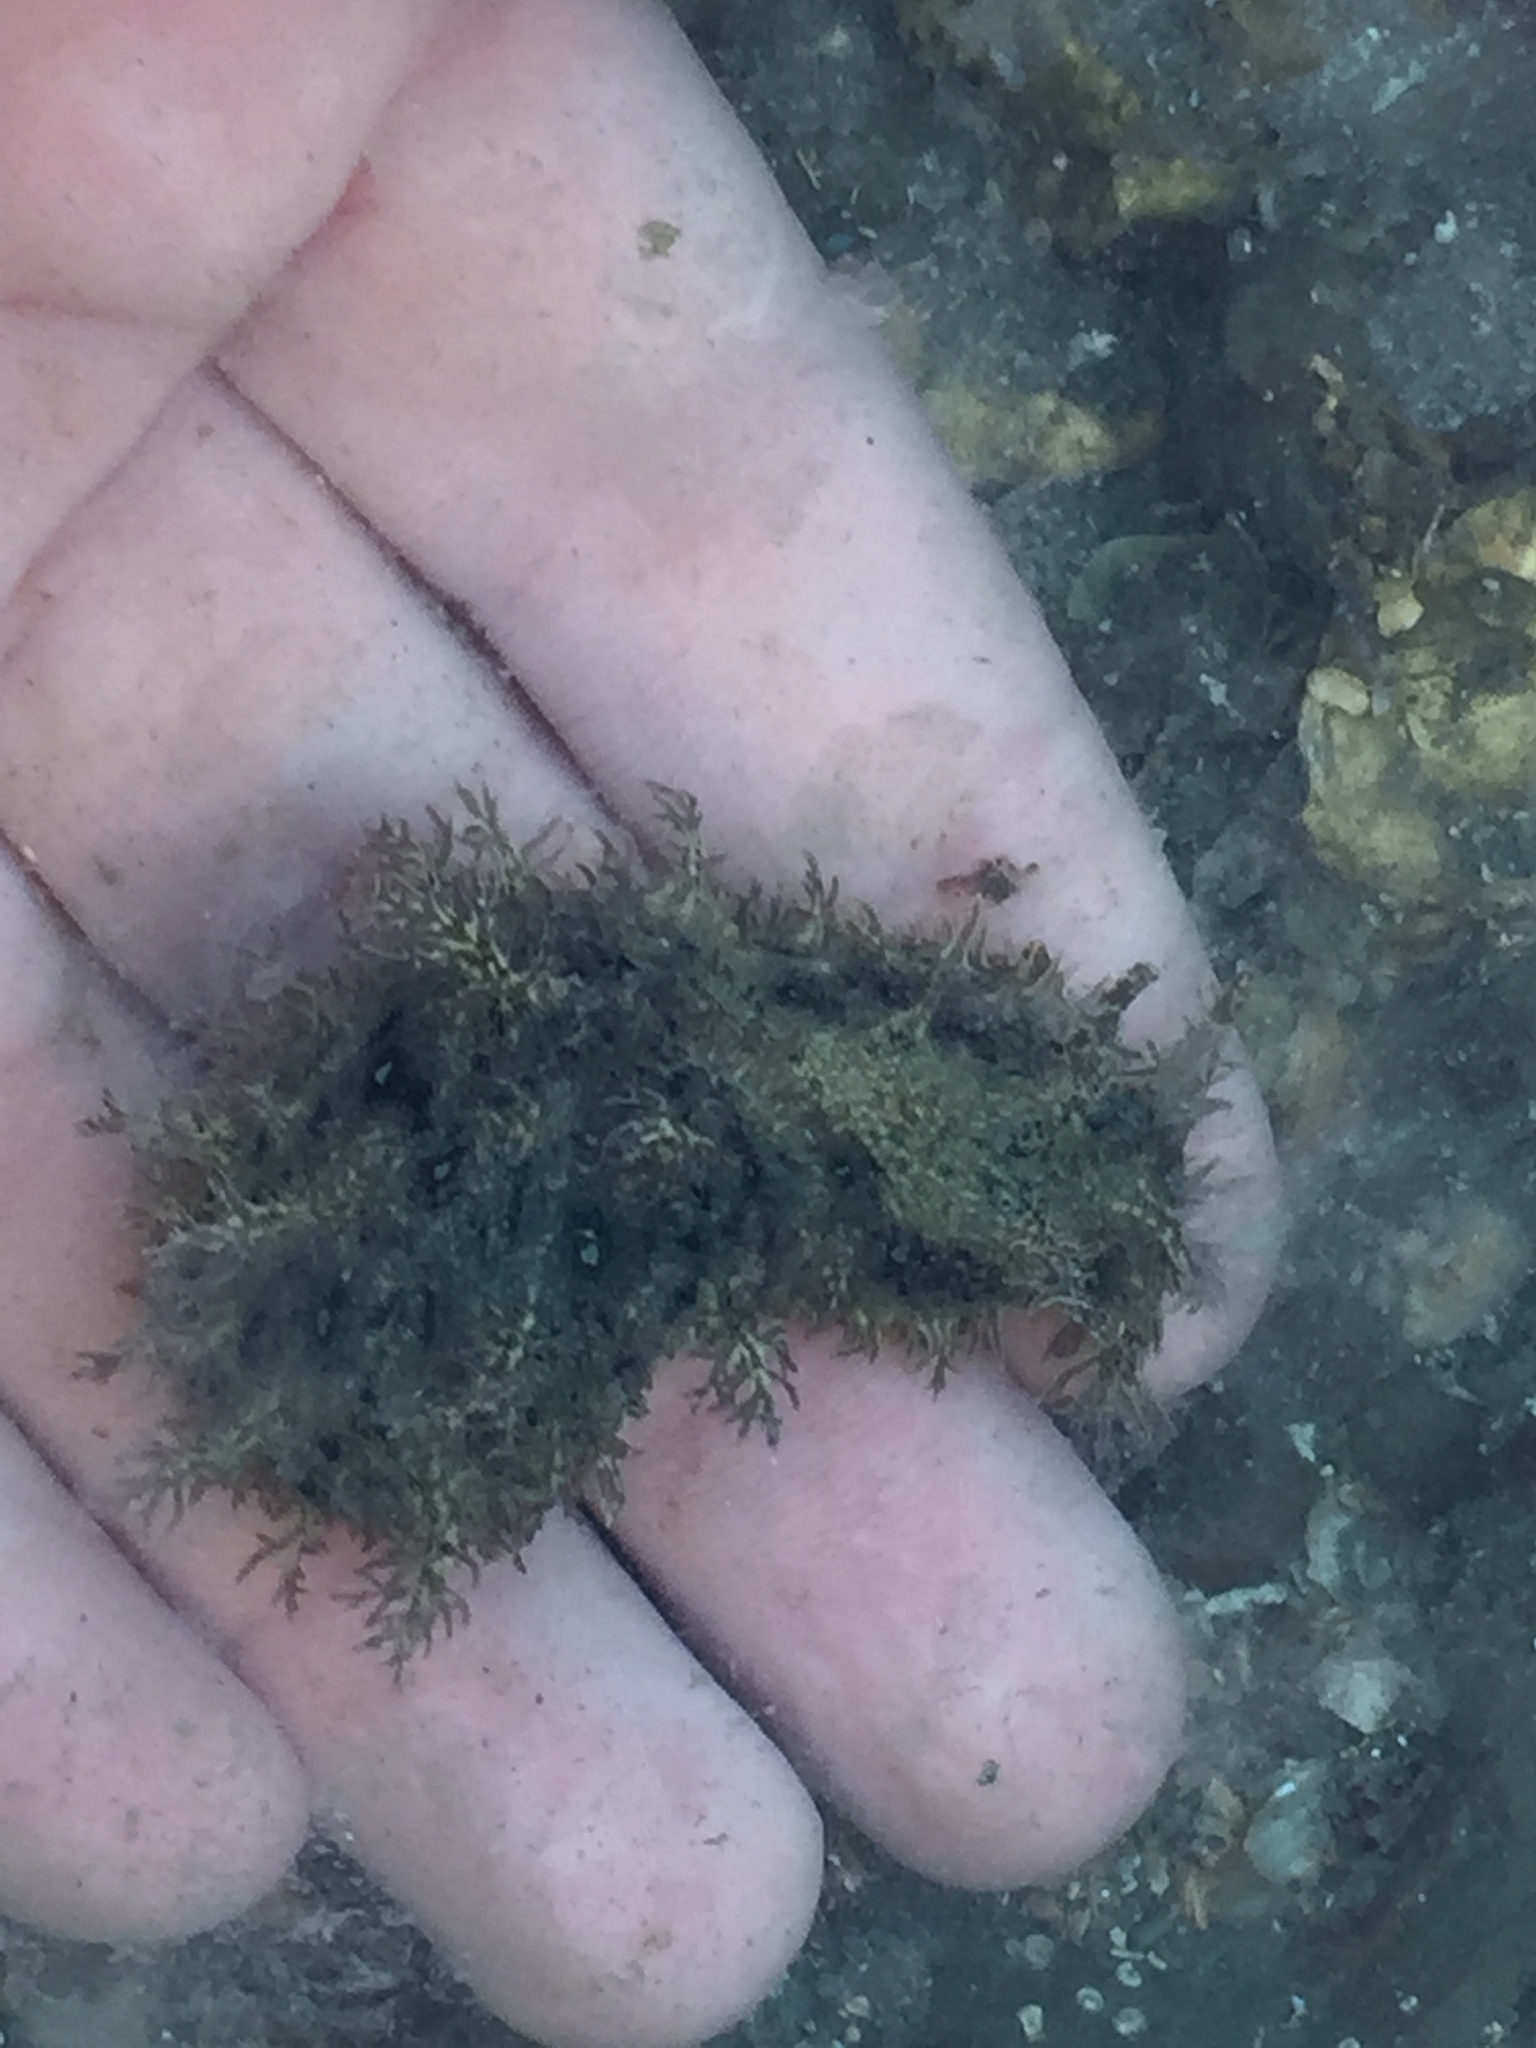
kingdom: Animalia
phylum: Mollusca
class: Gastropoda
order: Aplysiida
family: Aplysiidae
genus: Bursatella
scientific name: Bursatella leachii
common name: Shaggy sea hare
